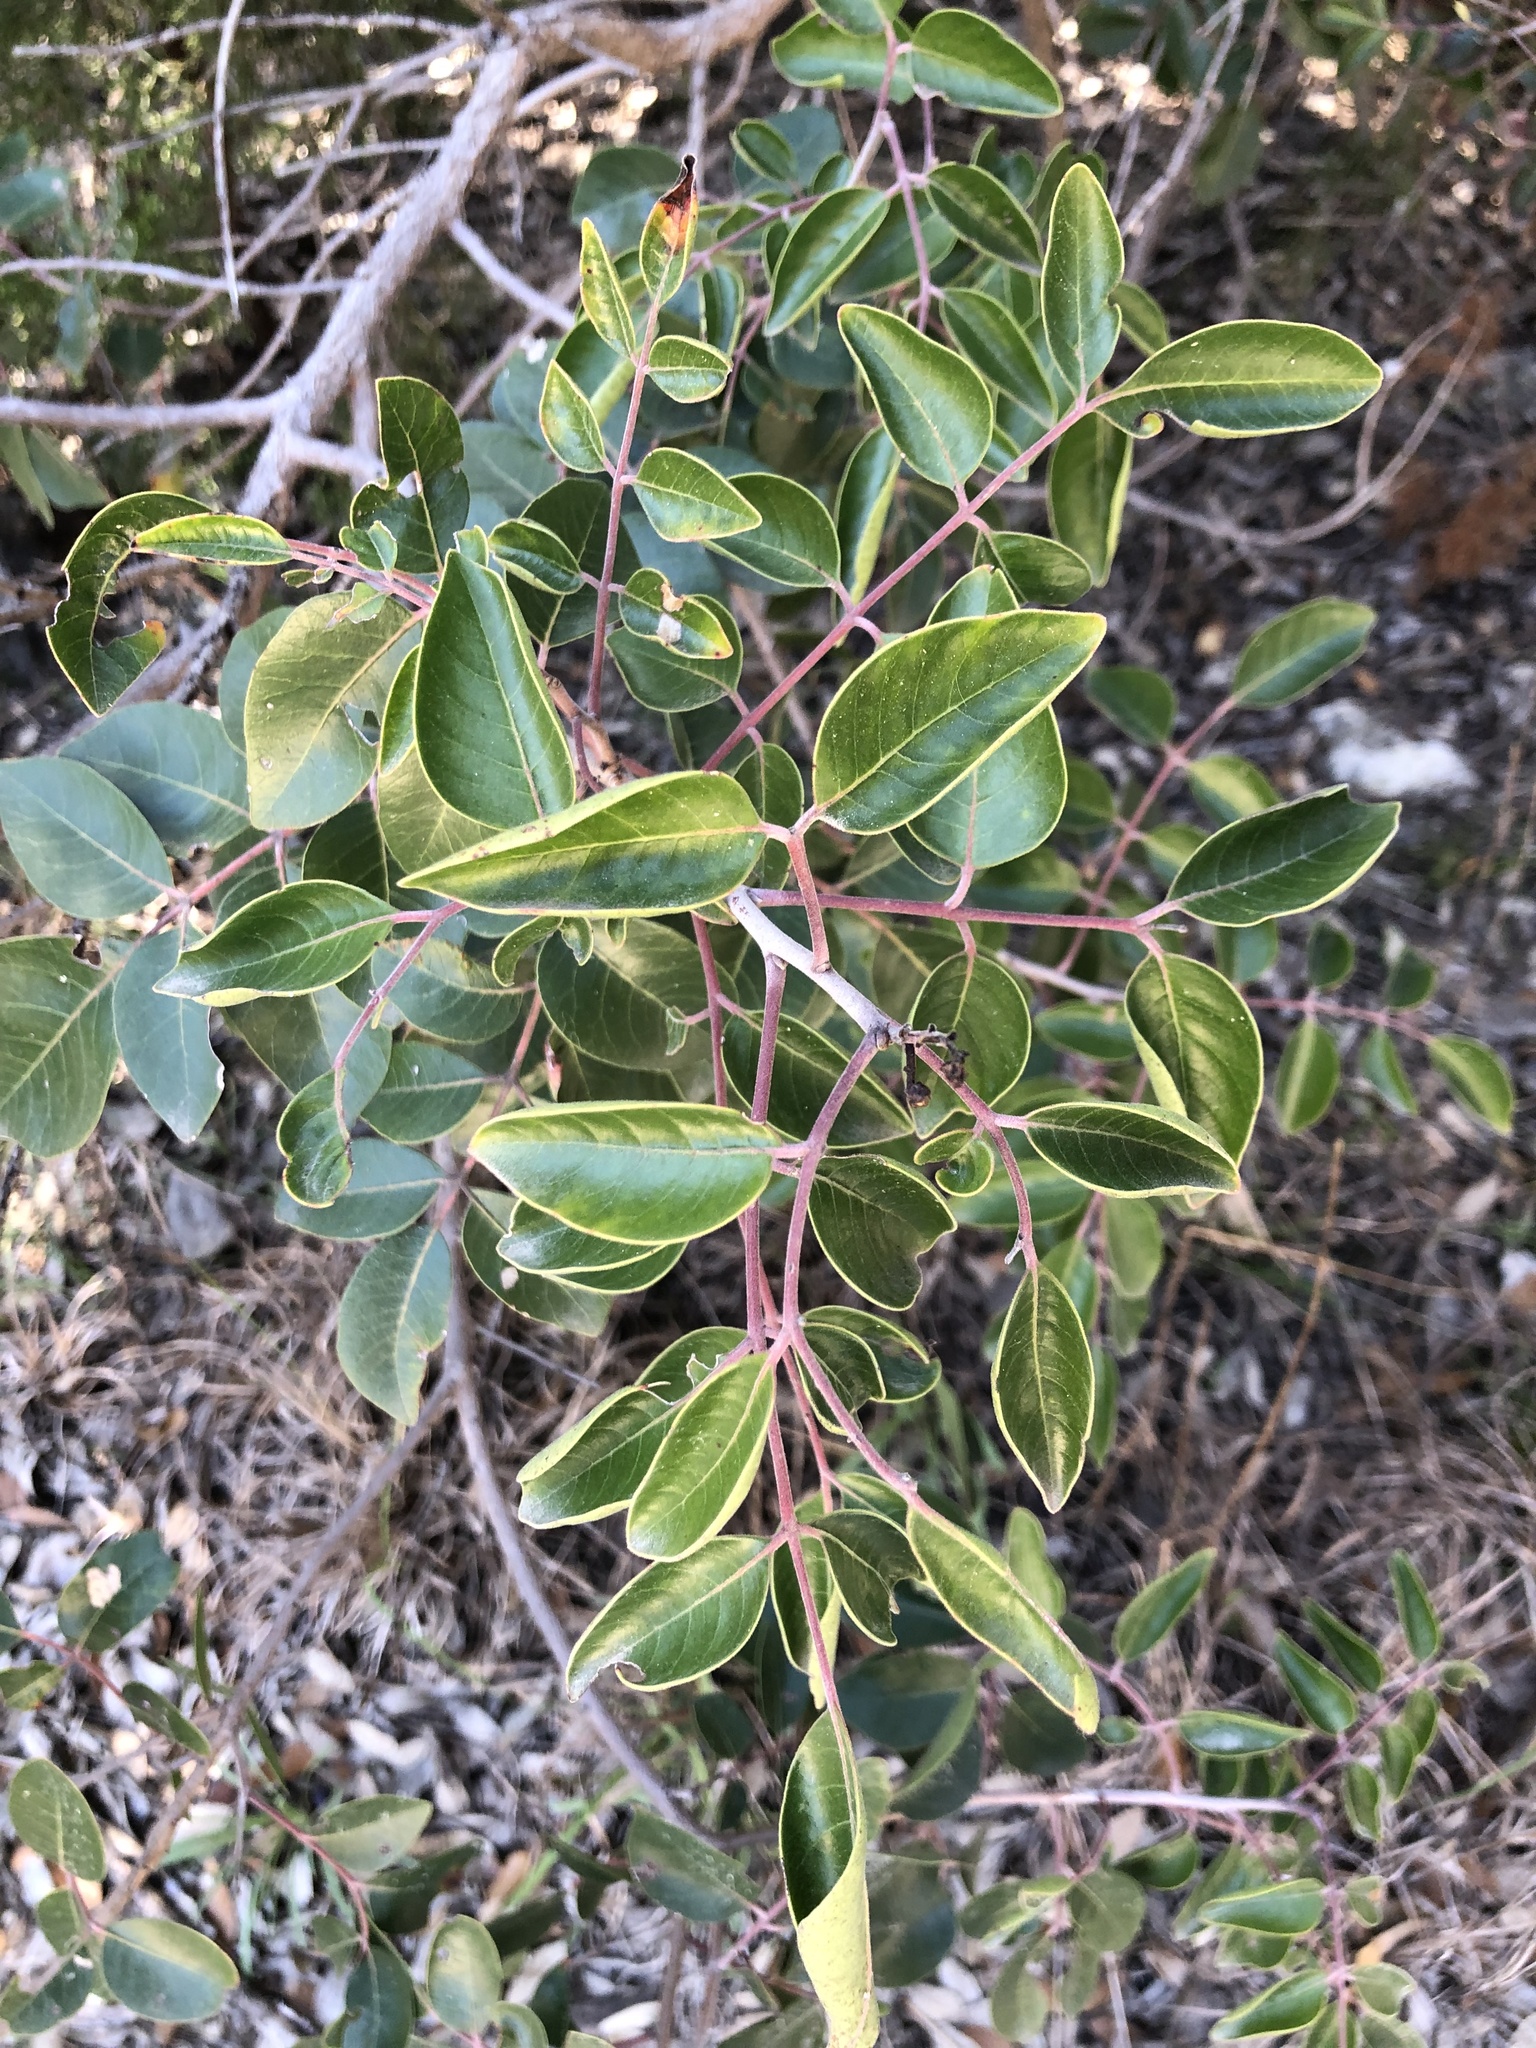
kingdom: Plantae
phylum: Tracheophyta
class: Magnoliopsida
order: Sapindales
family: Anacardiaceae
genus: Rhus
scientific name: Rhus virens
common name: Evergreen sumac
